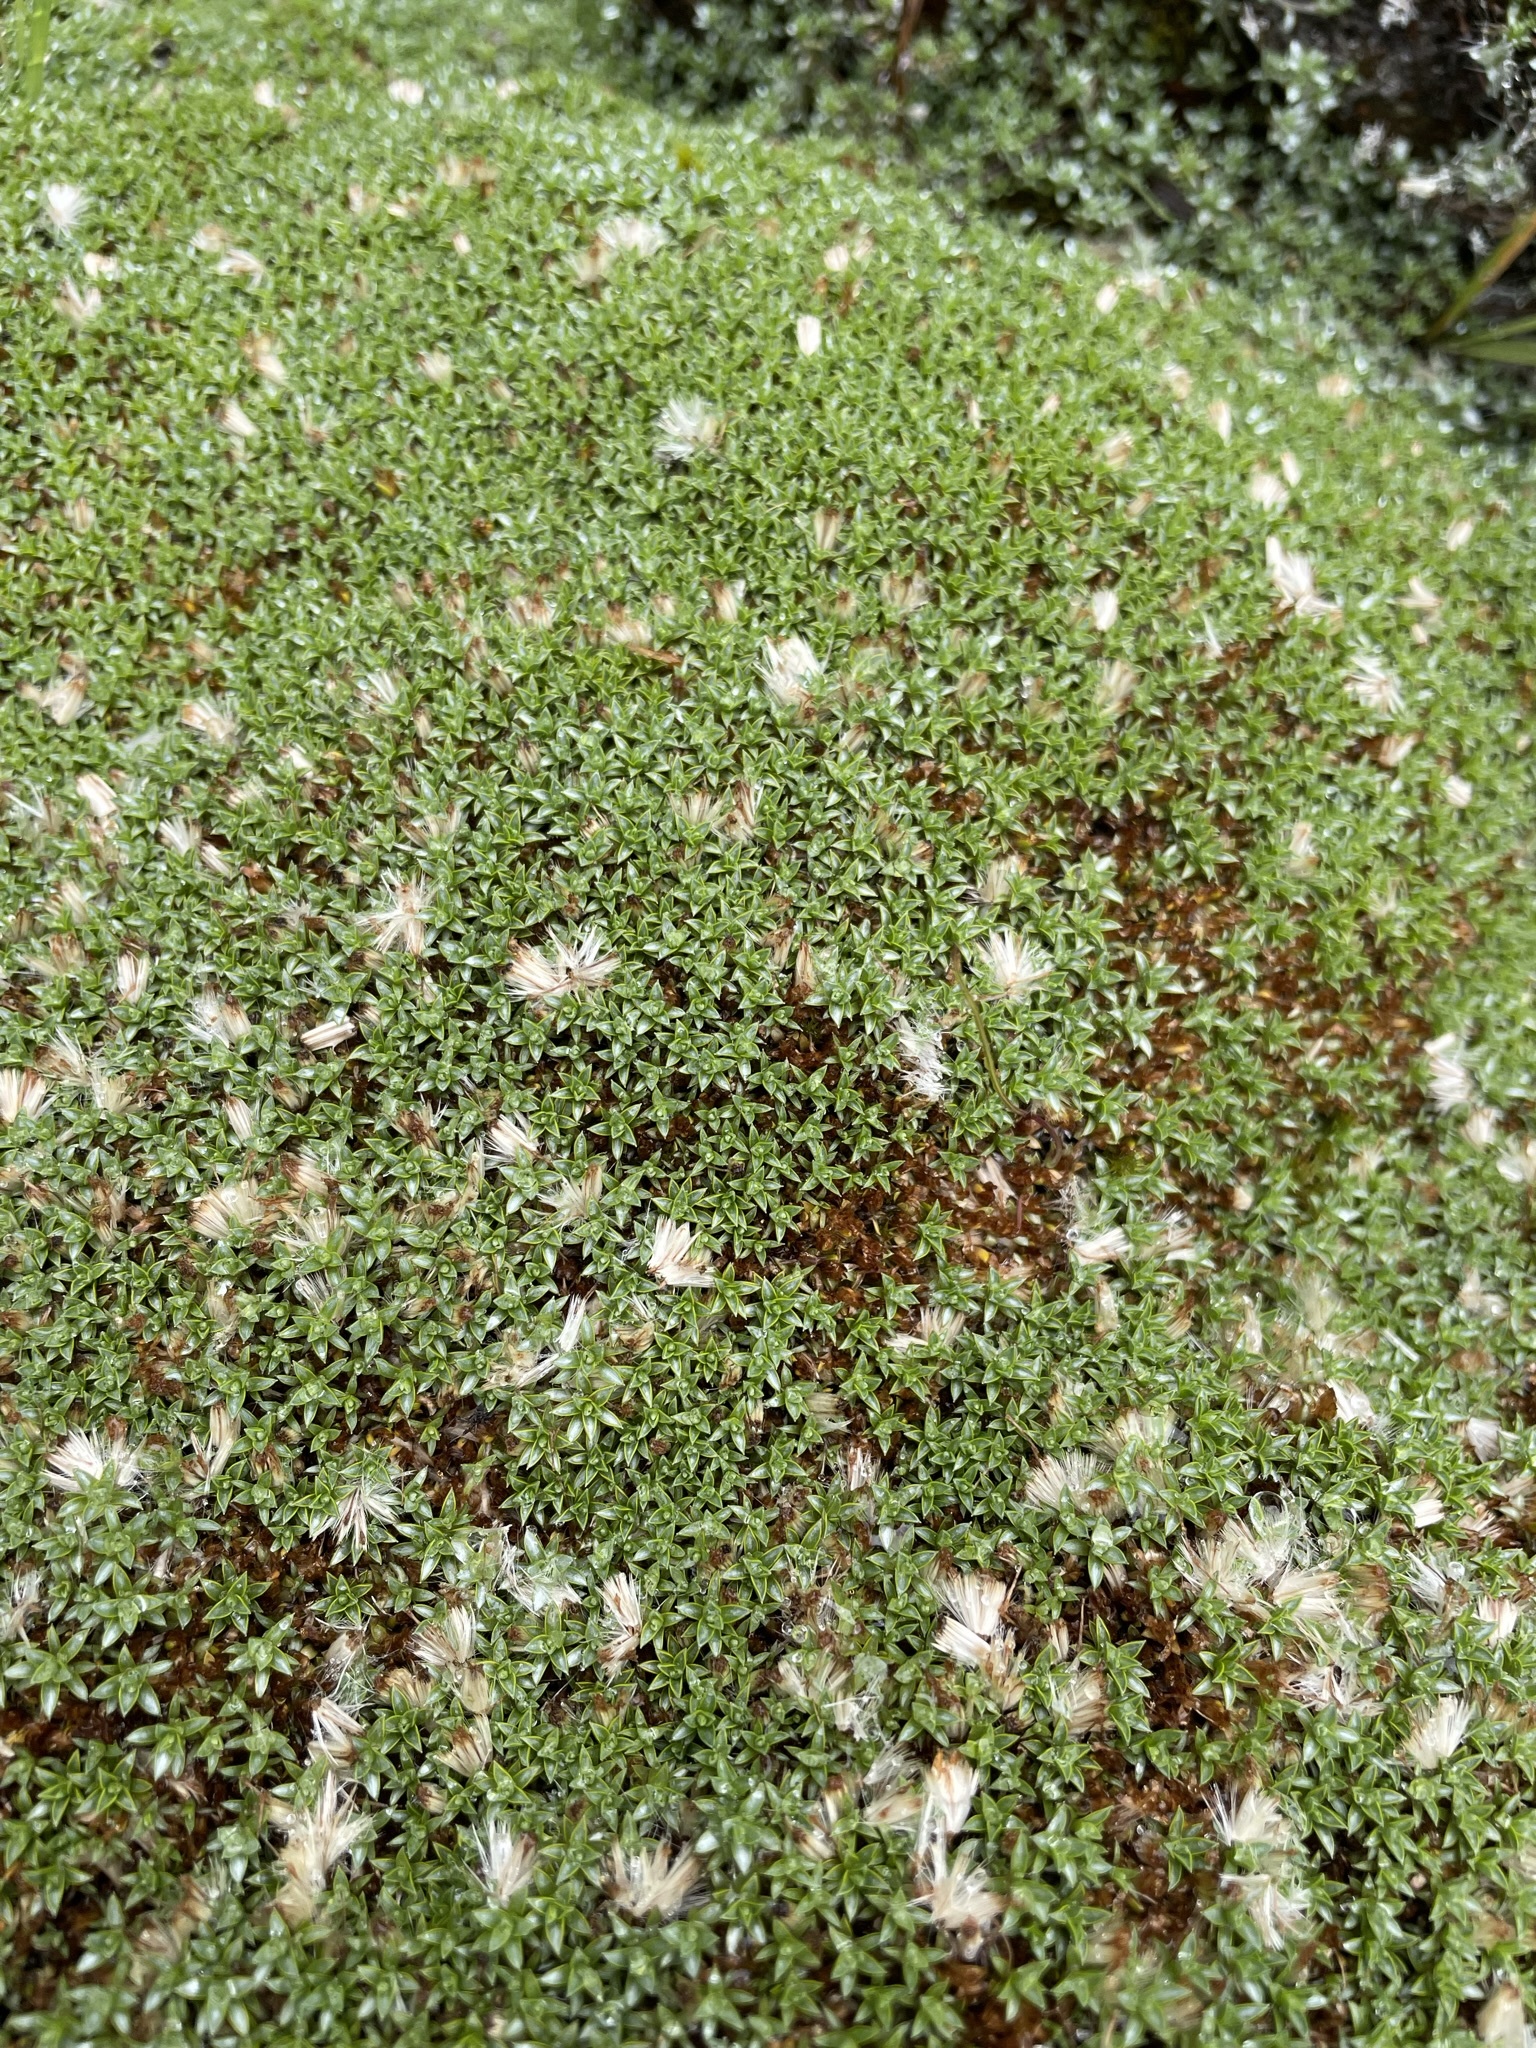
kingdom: Plantae
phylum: Tracheophyta
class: Magnoliopsida
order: Asterales
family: Asteraceae
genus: Raoulia
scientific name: Raoulia tenuicaulis
